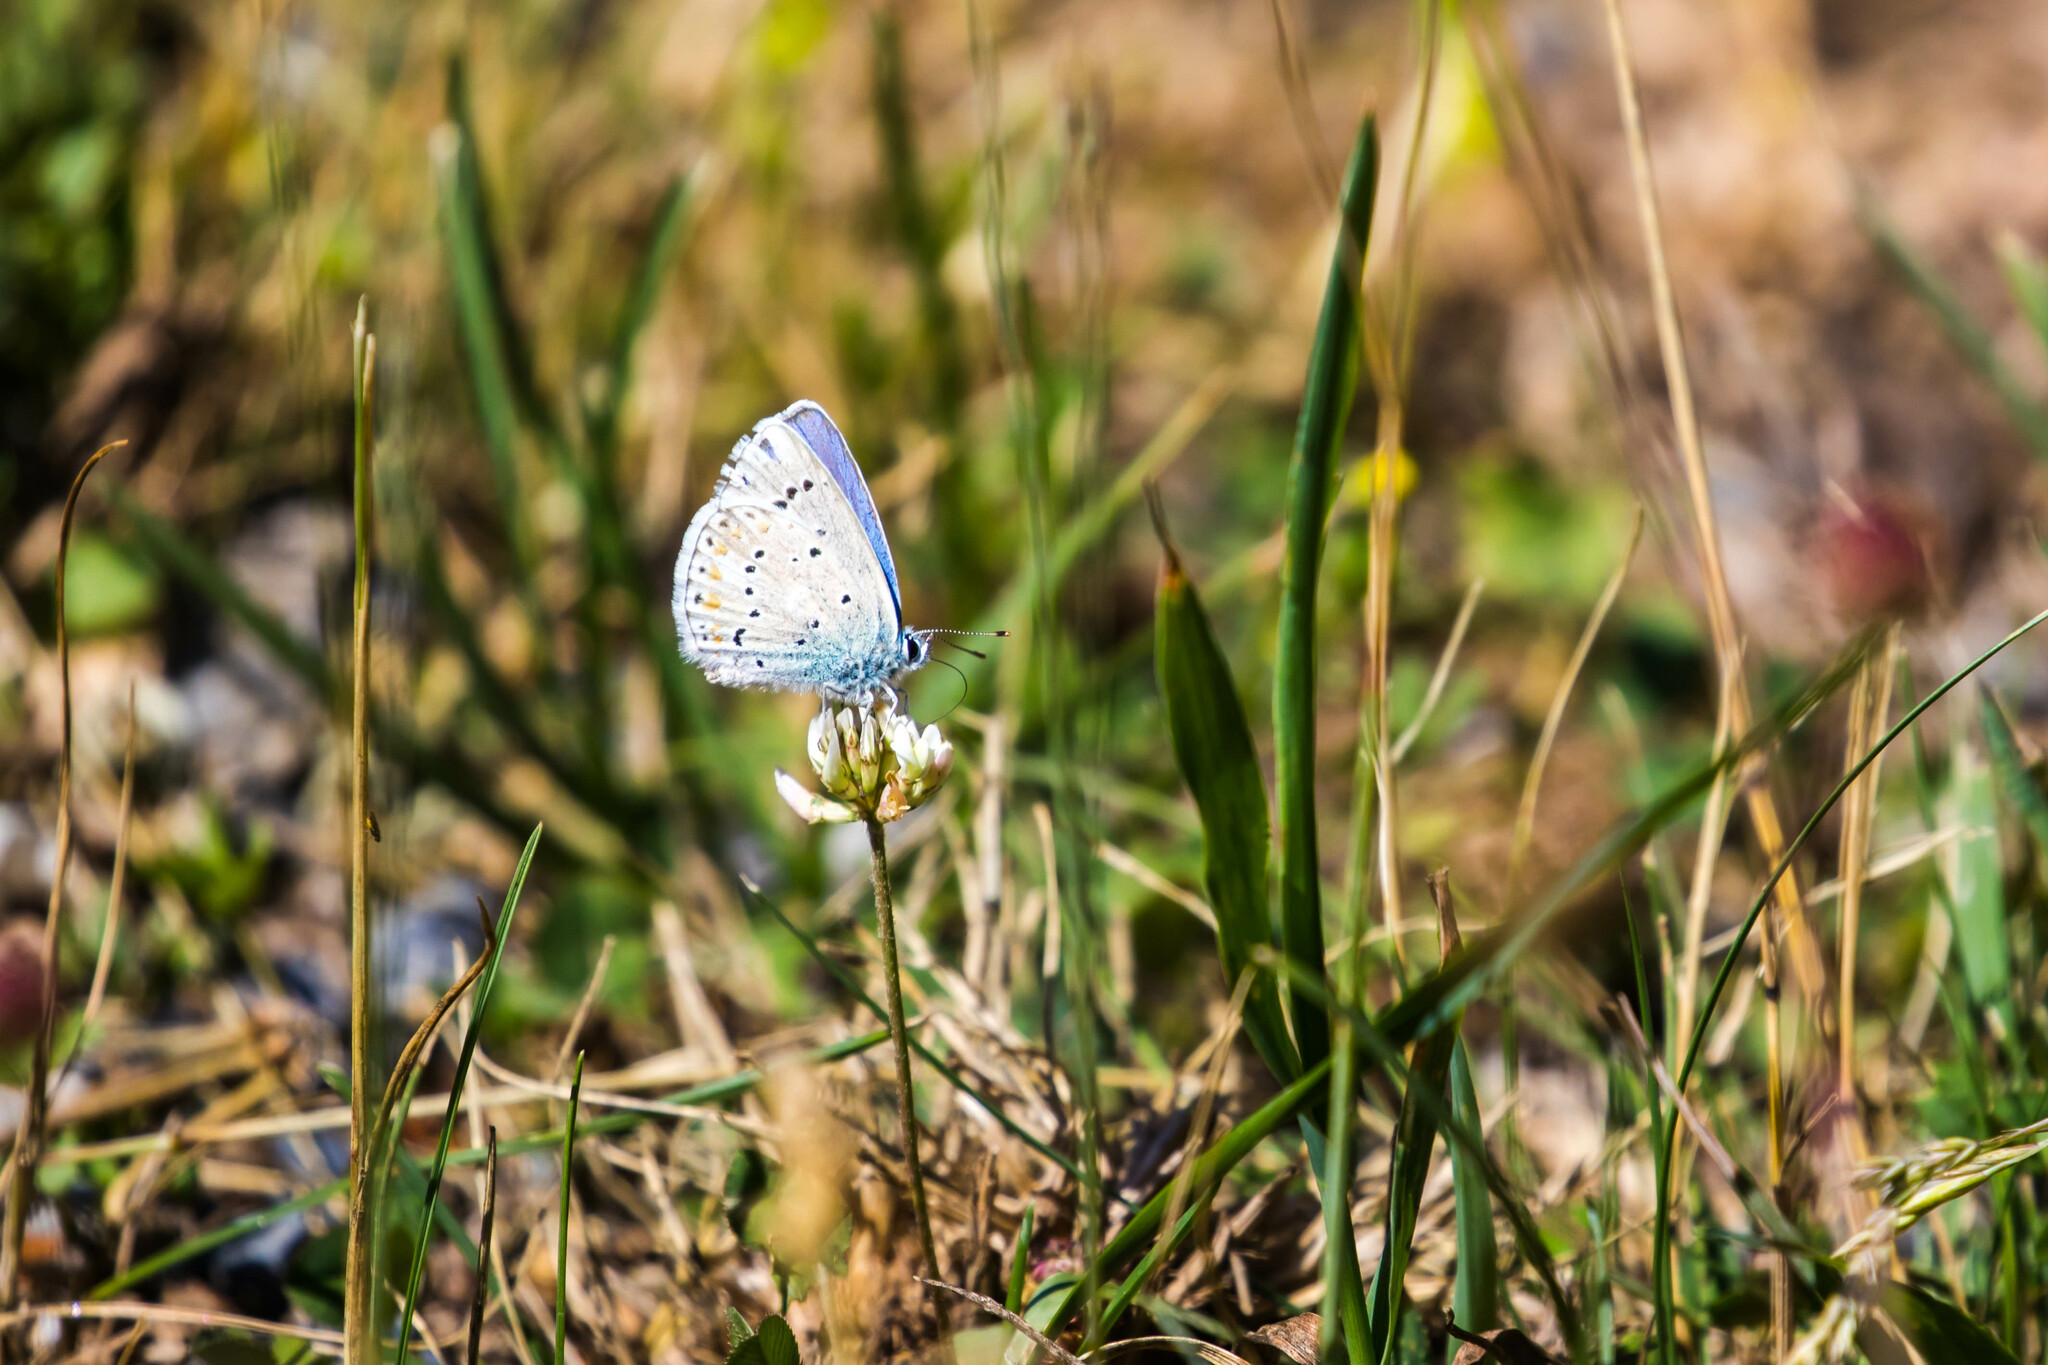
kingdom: Animalia
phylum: Arthropoda
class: Insecta
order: Lepidoptera
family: Lycaenidae
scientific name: Lycaenidae
